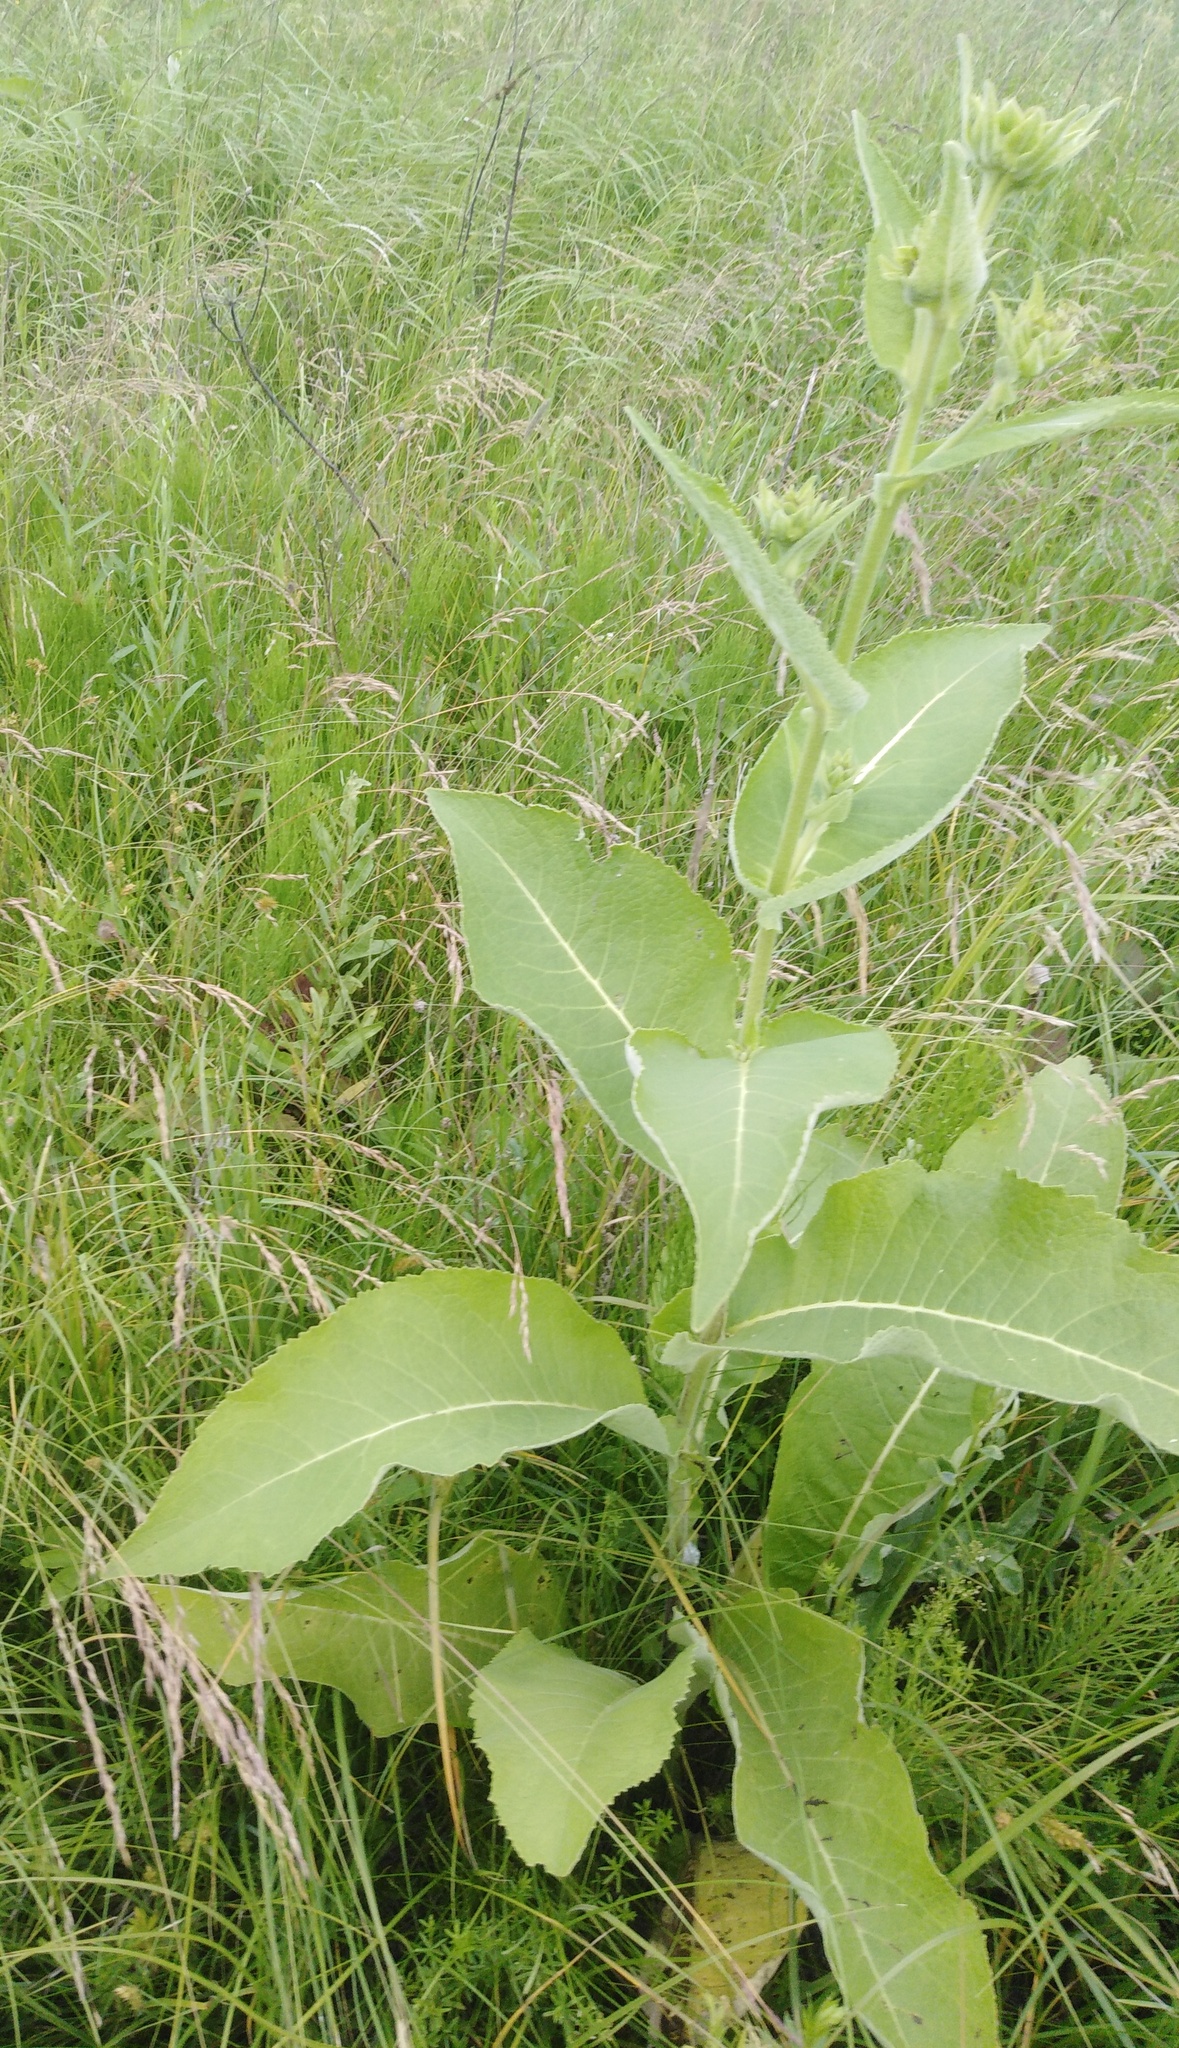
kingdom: Plantae
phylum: Tracheophyta
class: Magnoliopsida
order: Asterales
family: Asteraceae
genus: Inula
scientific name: Inula helenium
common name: Elecampane
